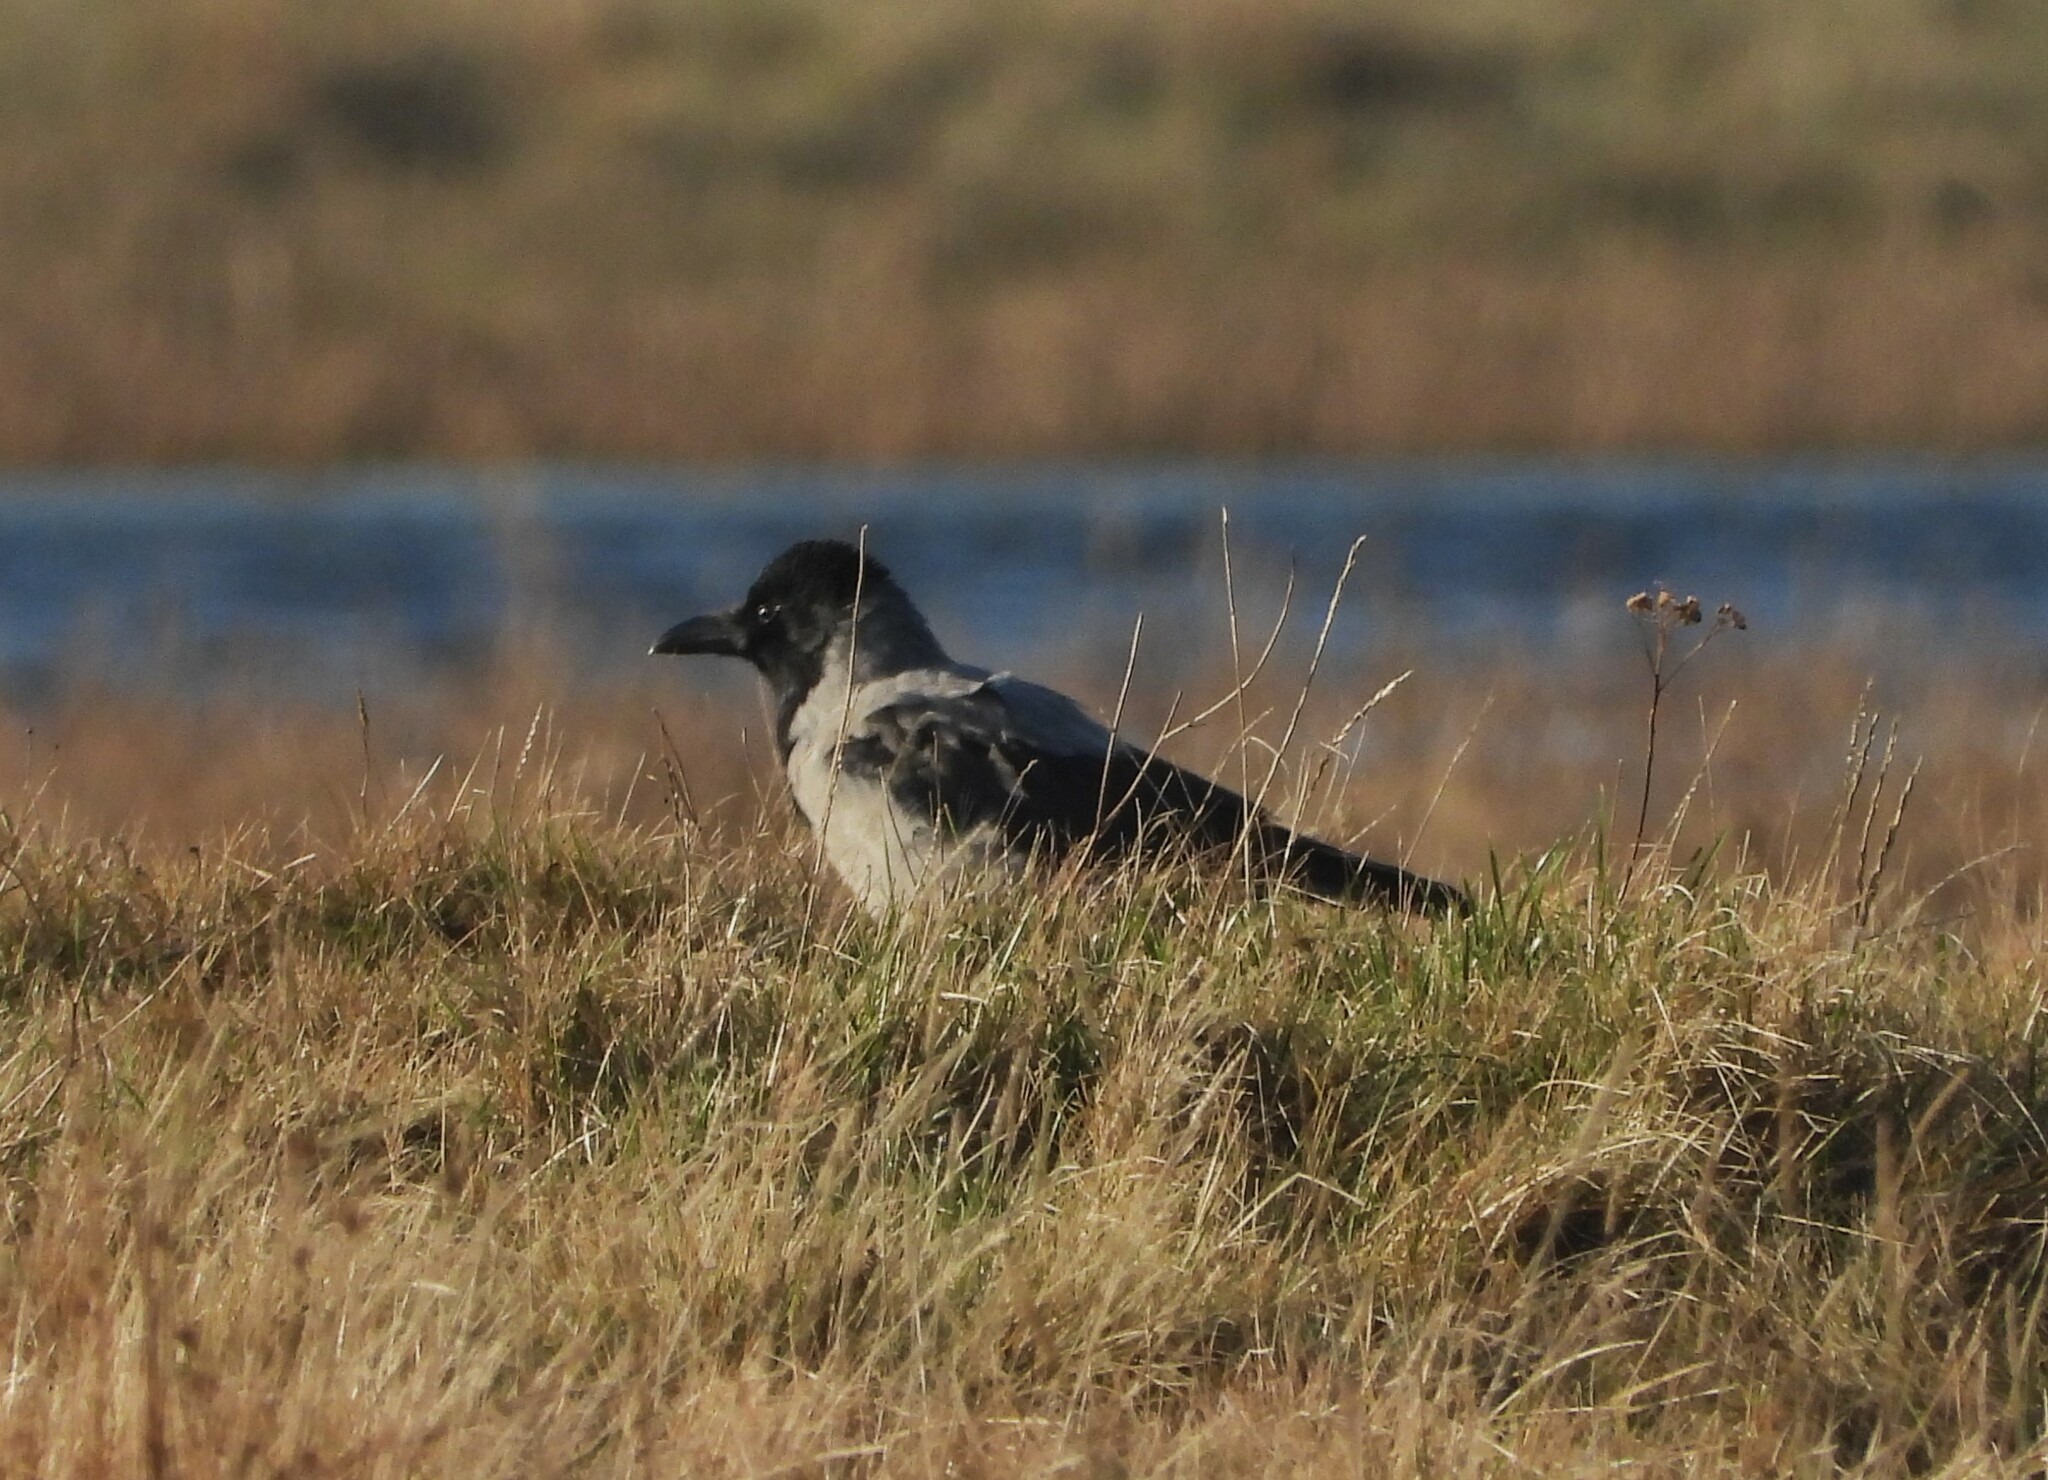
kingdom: Animalia
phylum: Chordata
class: Aves
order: Passeriformes
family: Corvidae
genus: Corvus
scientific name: Corvus cornix
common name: Hooded crow
